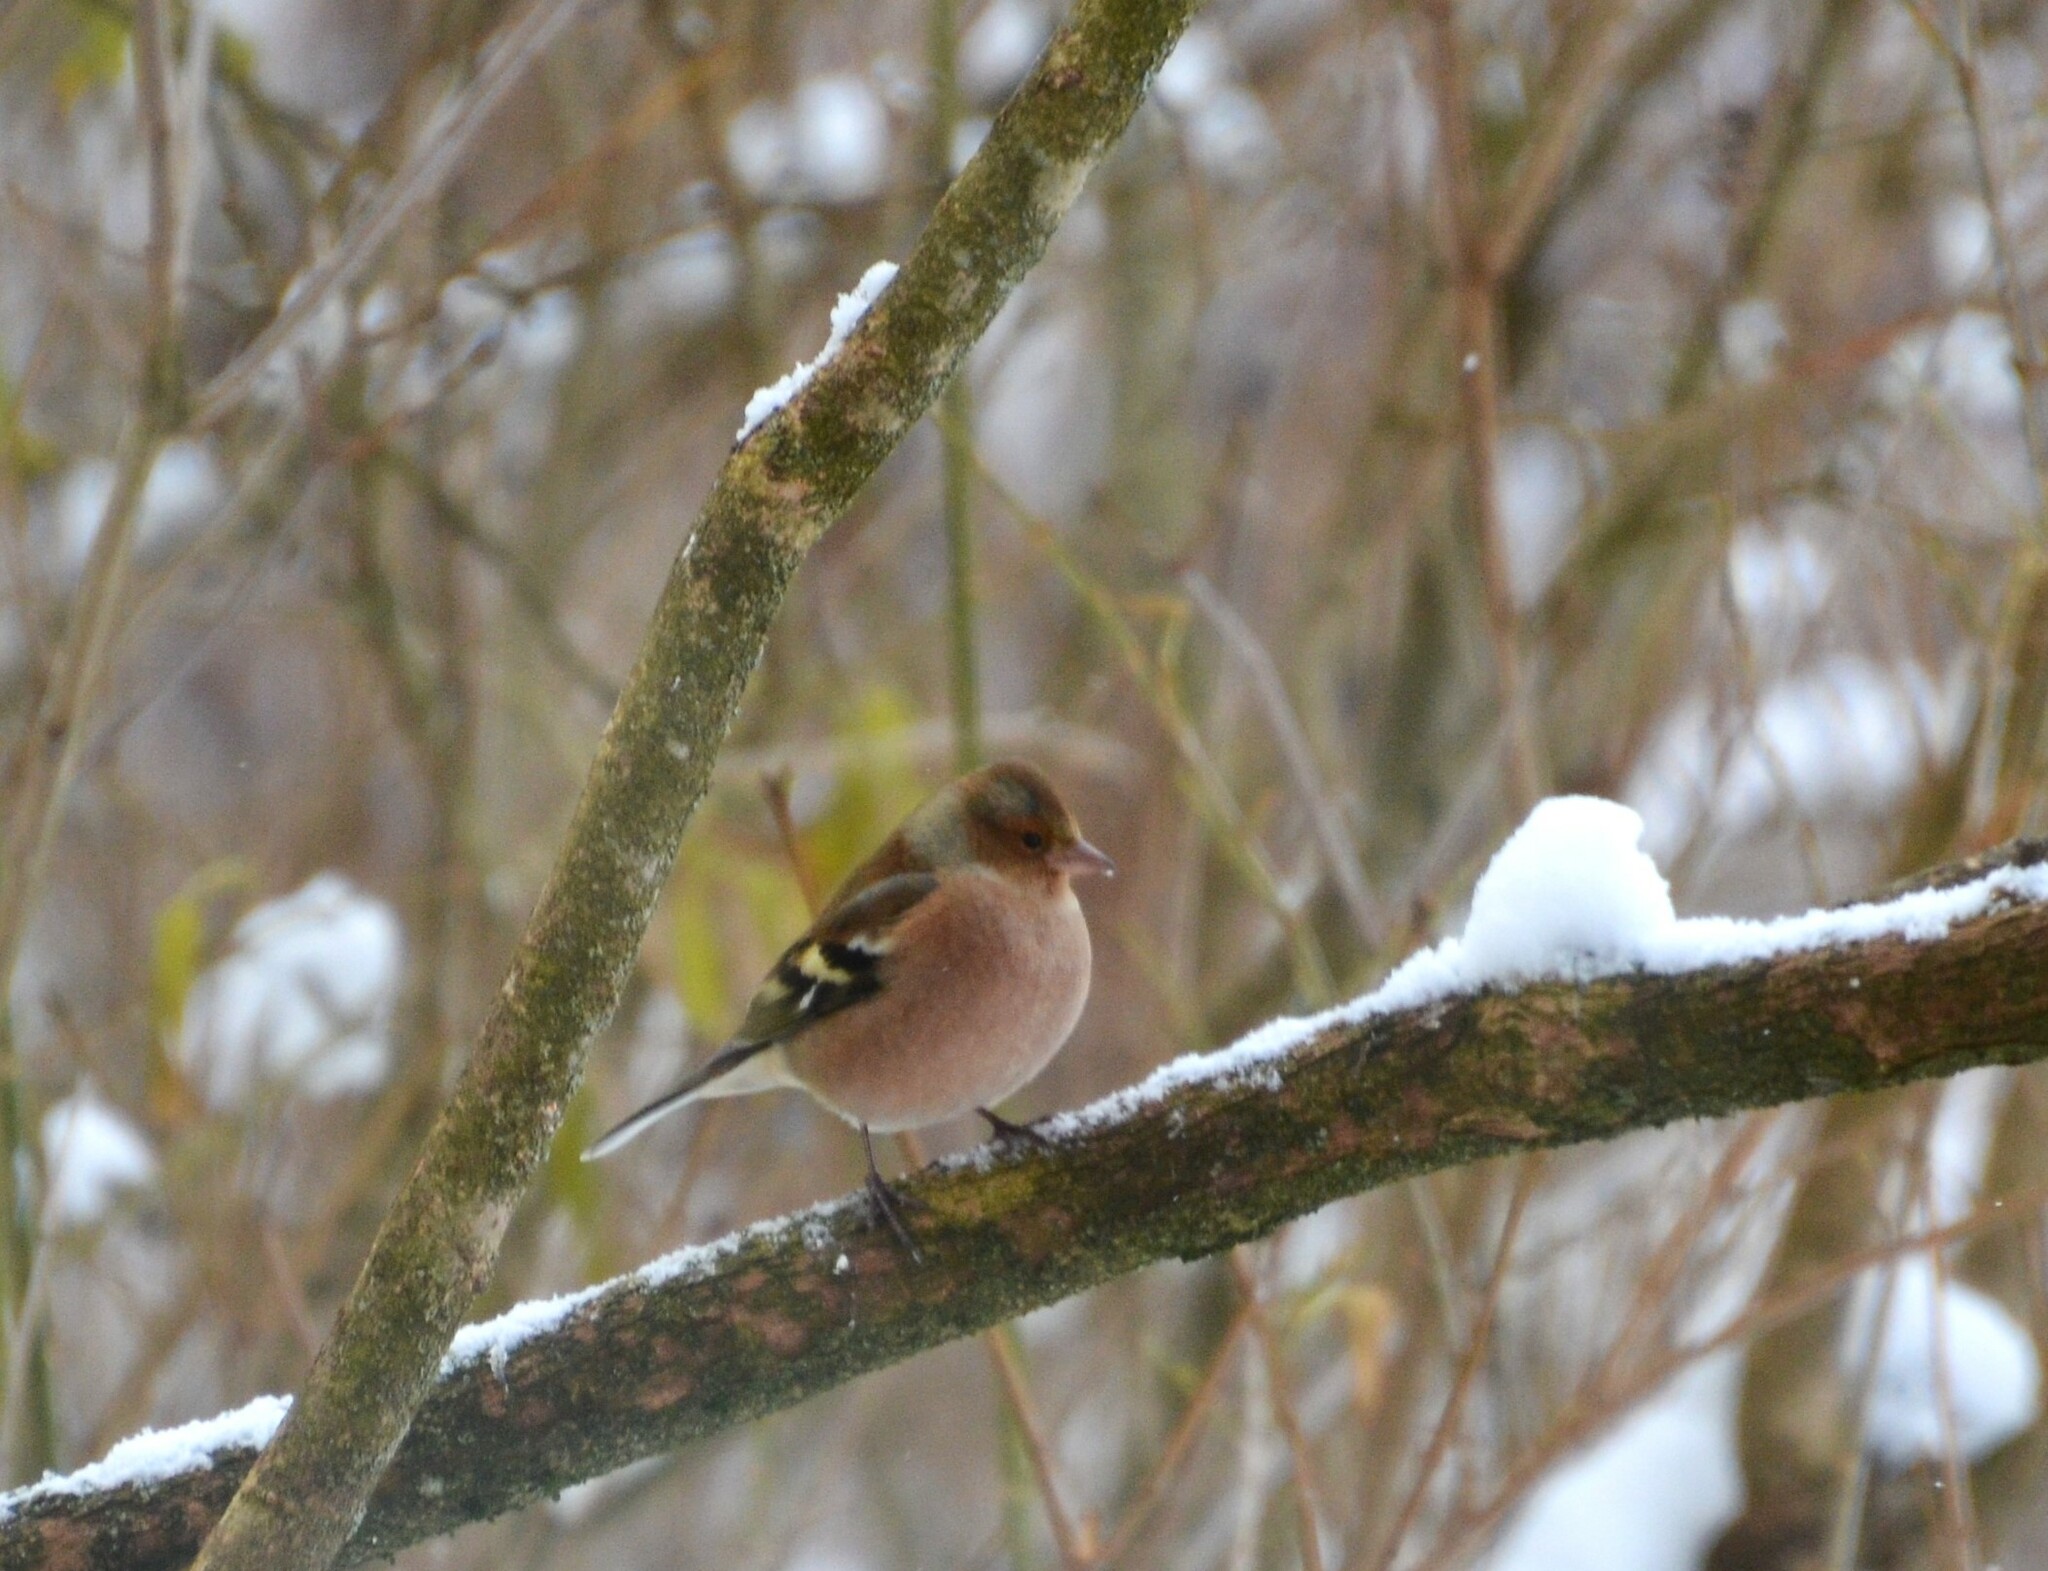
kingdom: Animalia
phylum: Chordata
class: Aves
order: Passeriformes
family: Fringillidae
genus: Fringilla
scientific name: Fringilla coelebs
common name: Common chaffinch
